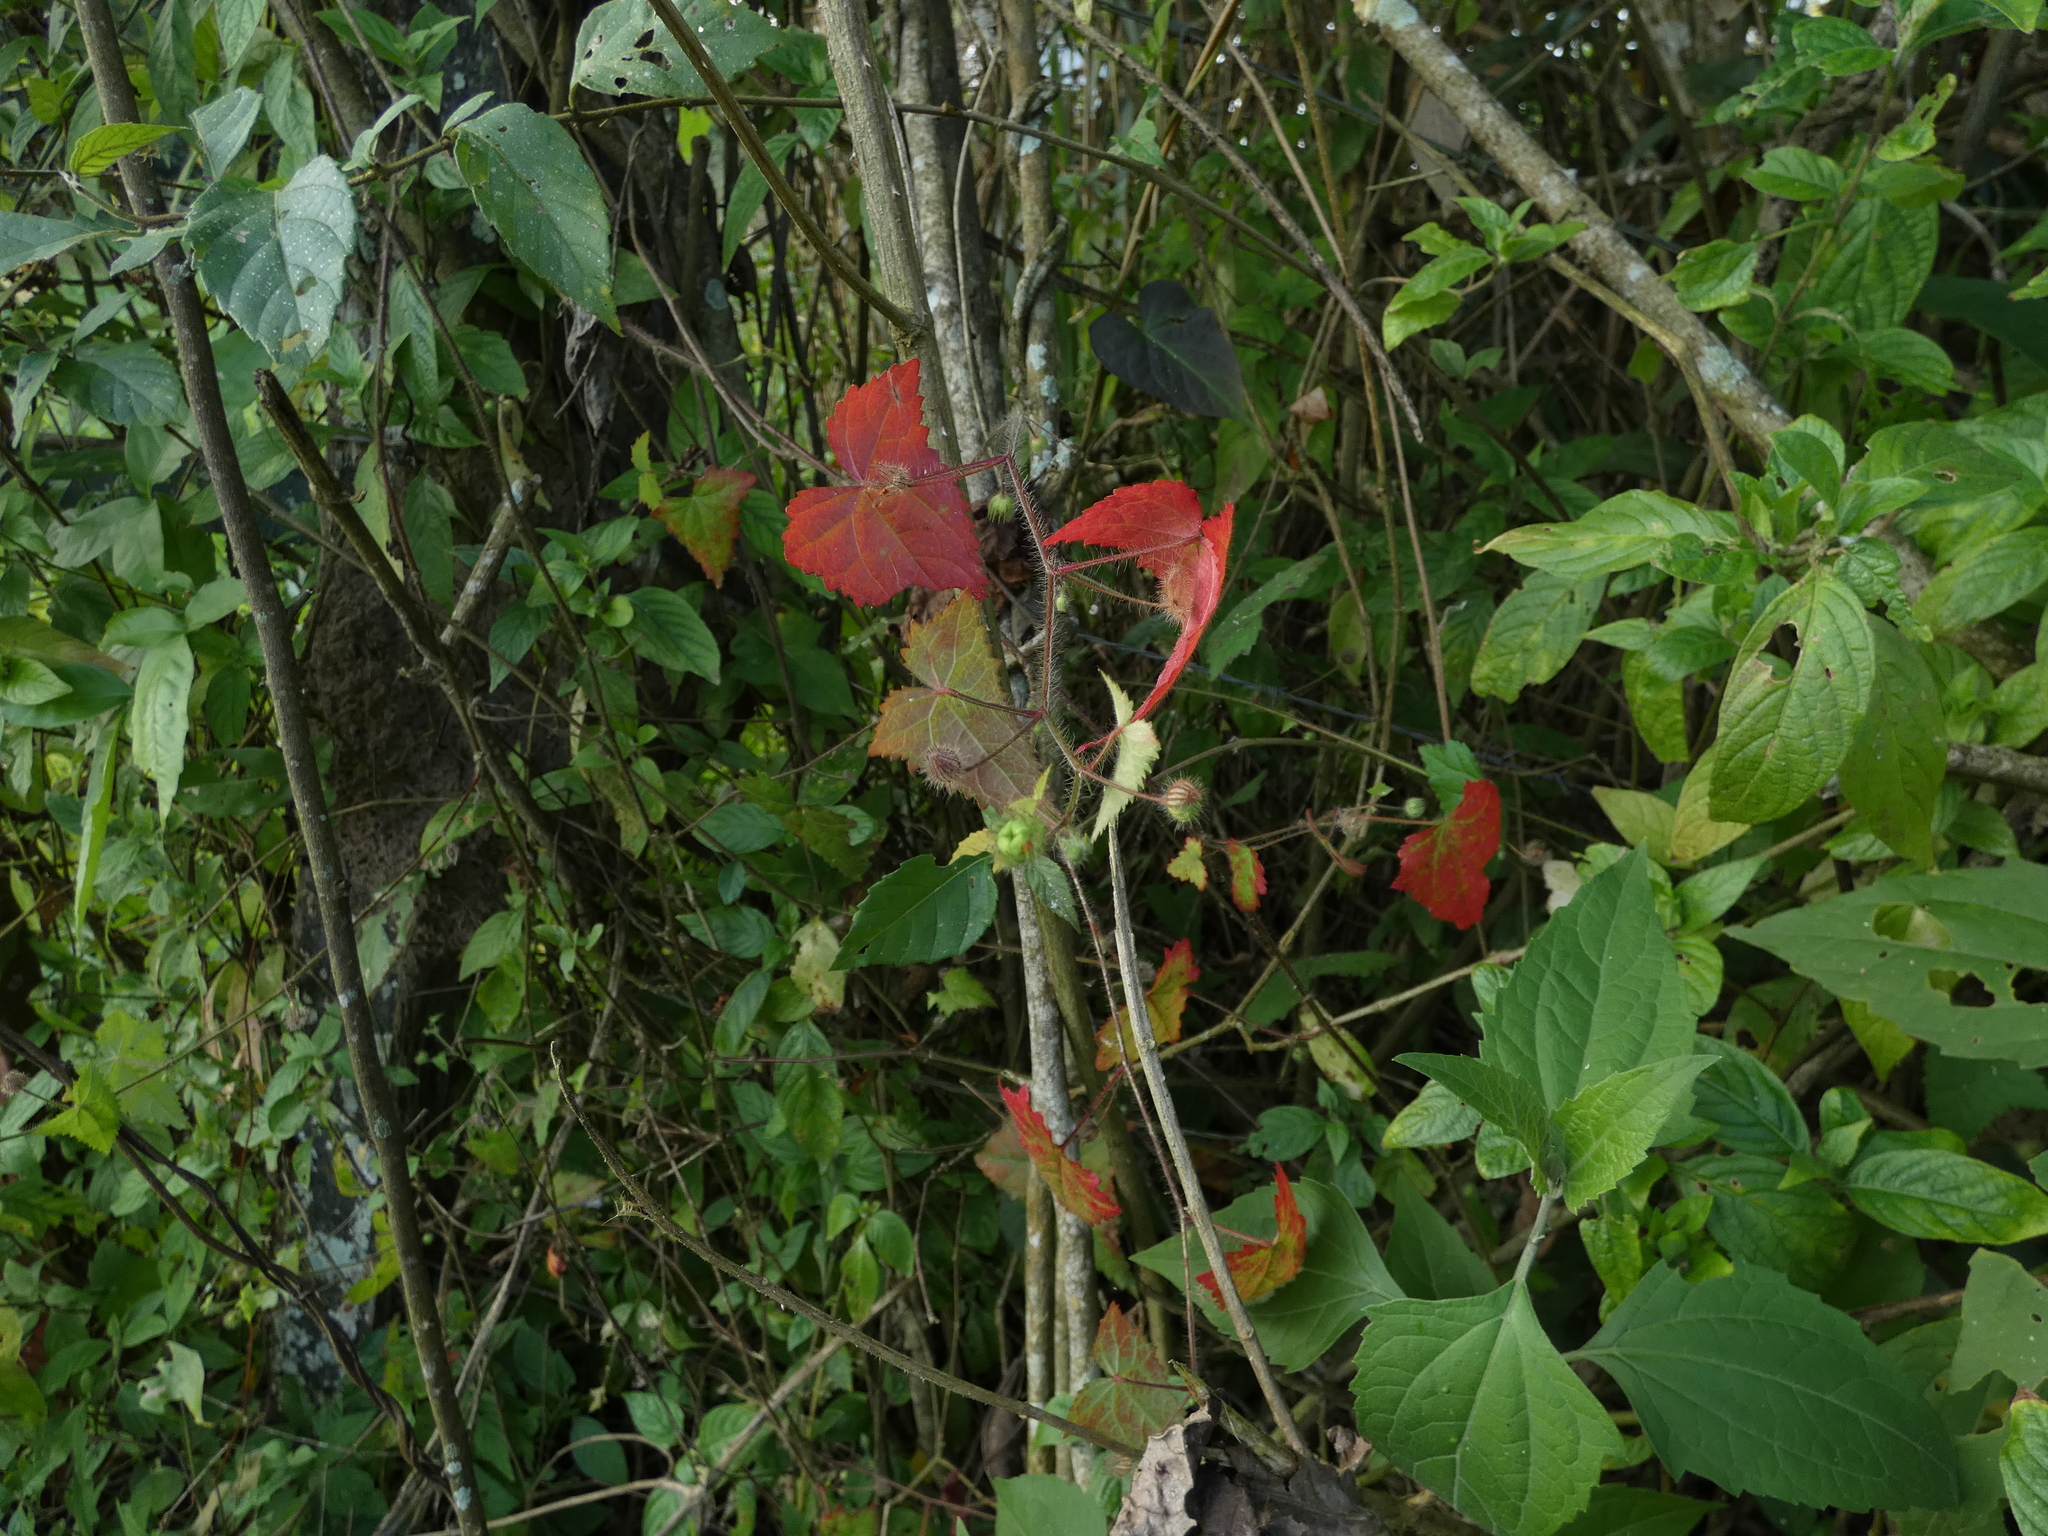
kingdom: Plantae
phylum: Tracheophyta
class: Magnoliopsida
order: Malvales
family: Malvaceae
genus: Pavonia
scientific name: Pavonia cancellata
